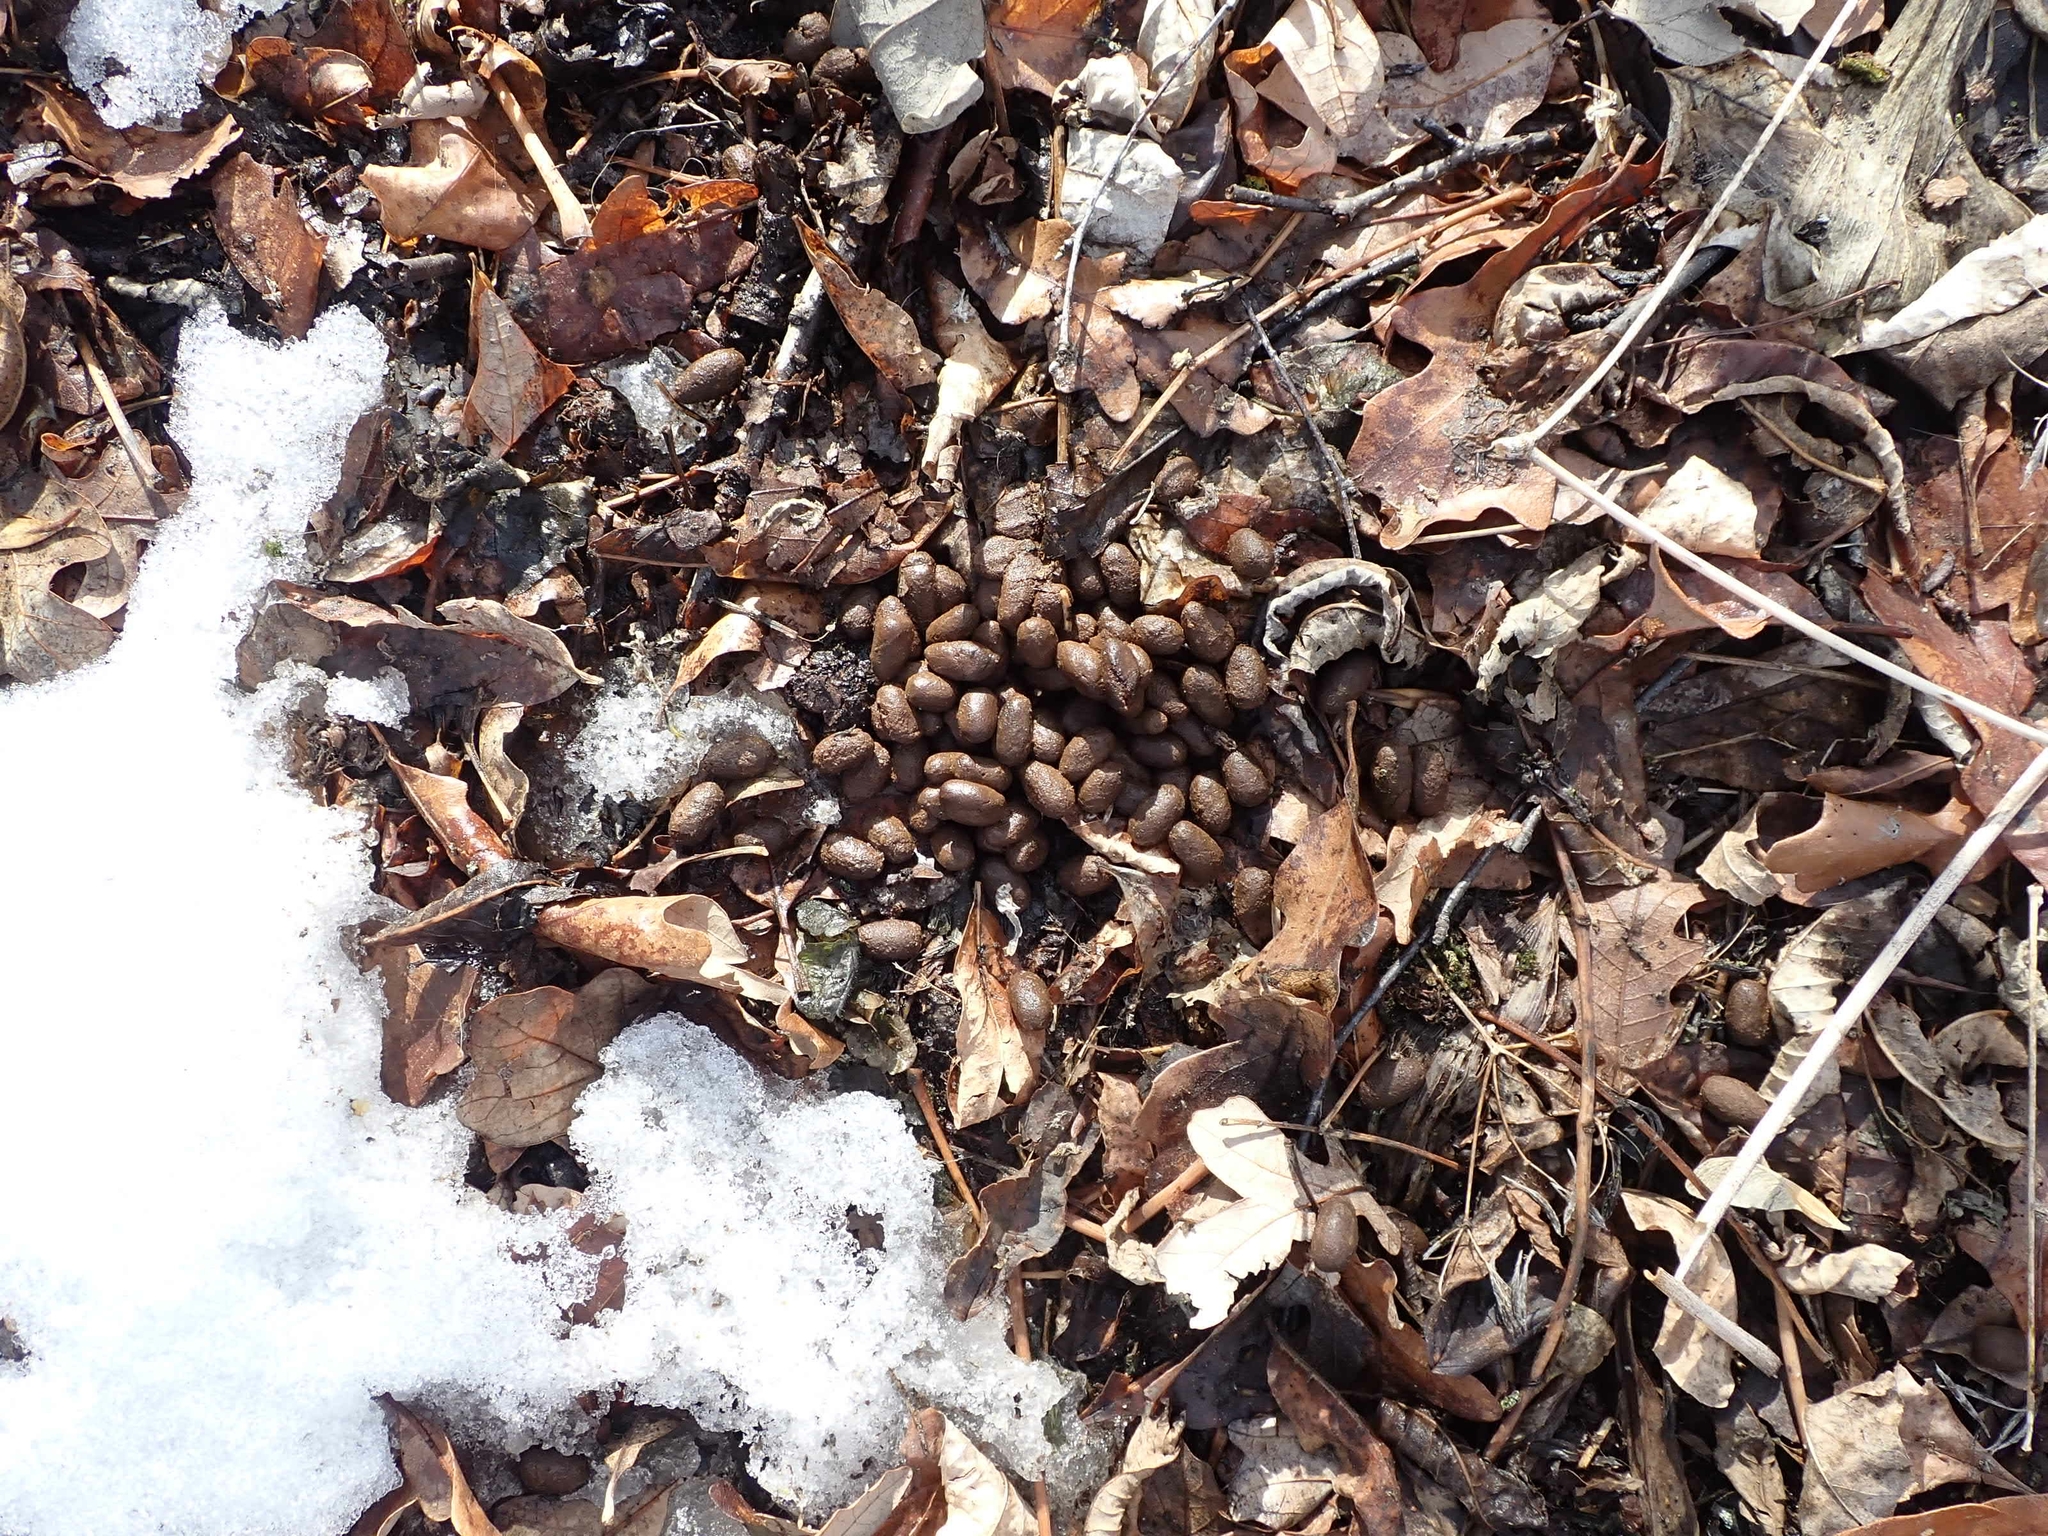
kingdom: Animalia
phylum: Chordata
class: Mammalia
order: Artiodactyla
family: Cervidae
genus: Odocoileus
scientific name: Odocoileus virginianus
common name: White-tailed deer
